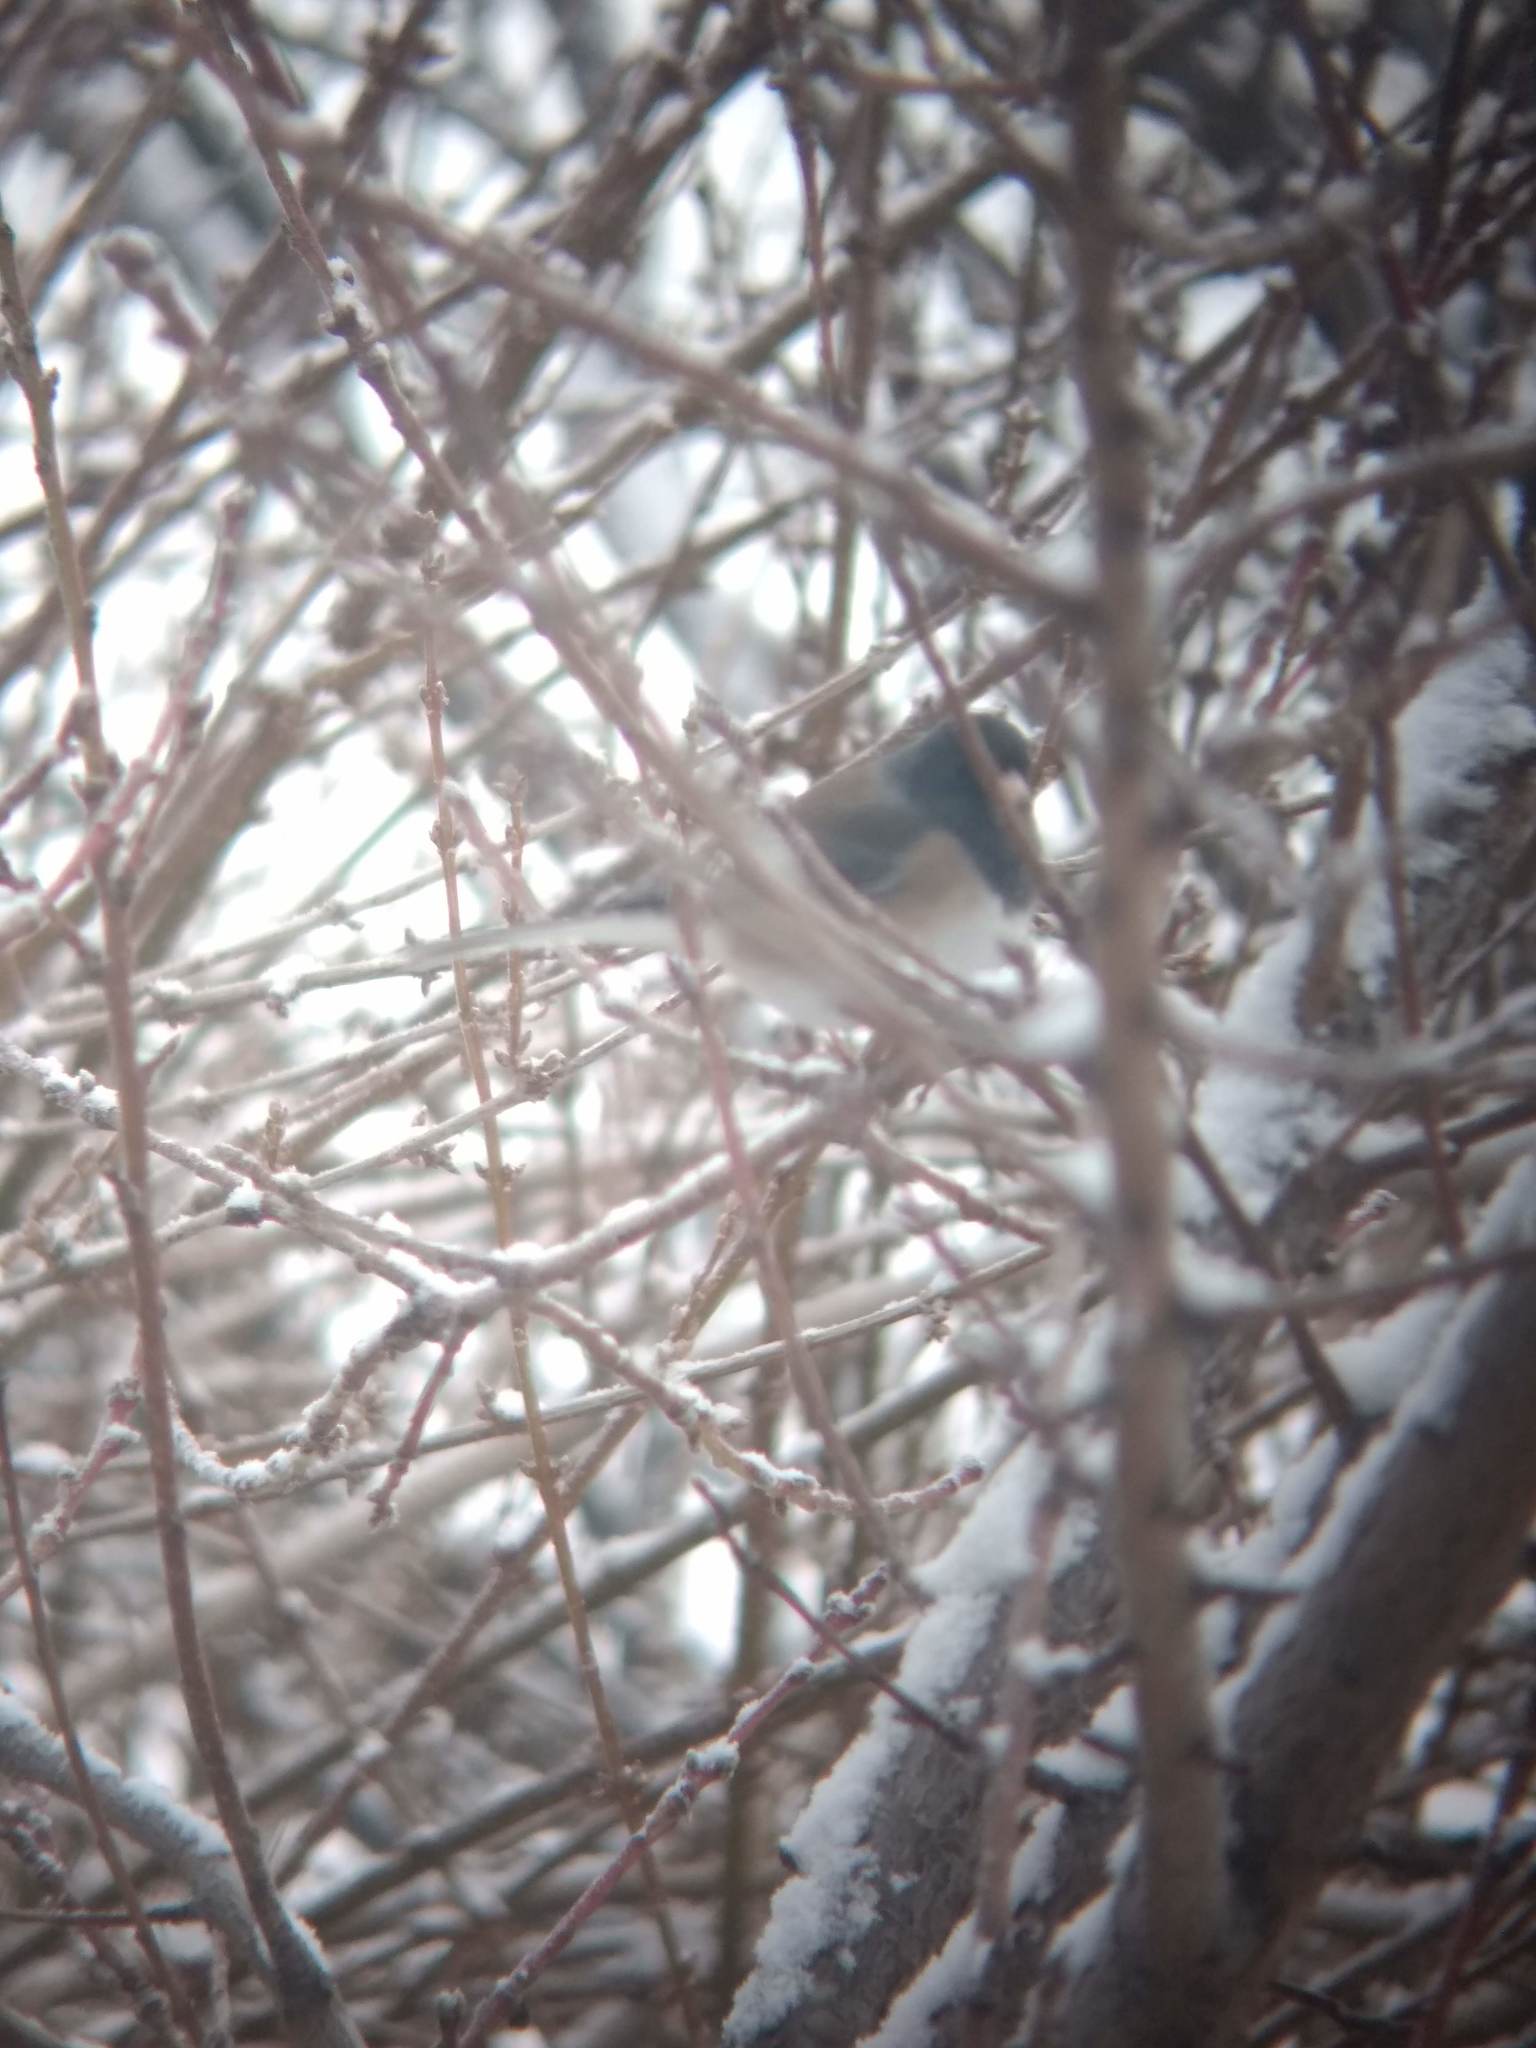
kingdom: Animalia
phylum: Chordata
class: Aves
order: Passeriformes
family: Passerellidae
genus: Junco
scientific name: Junco hyemalis
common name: Dark-eyed junco
